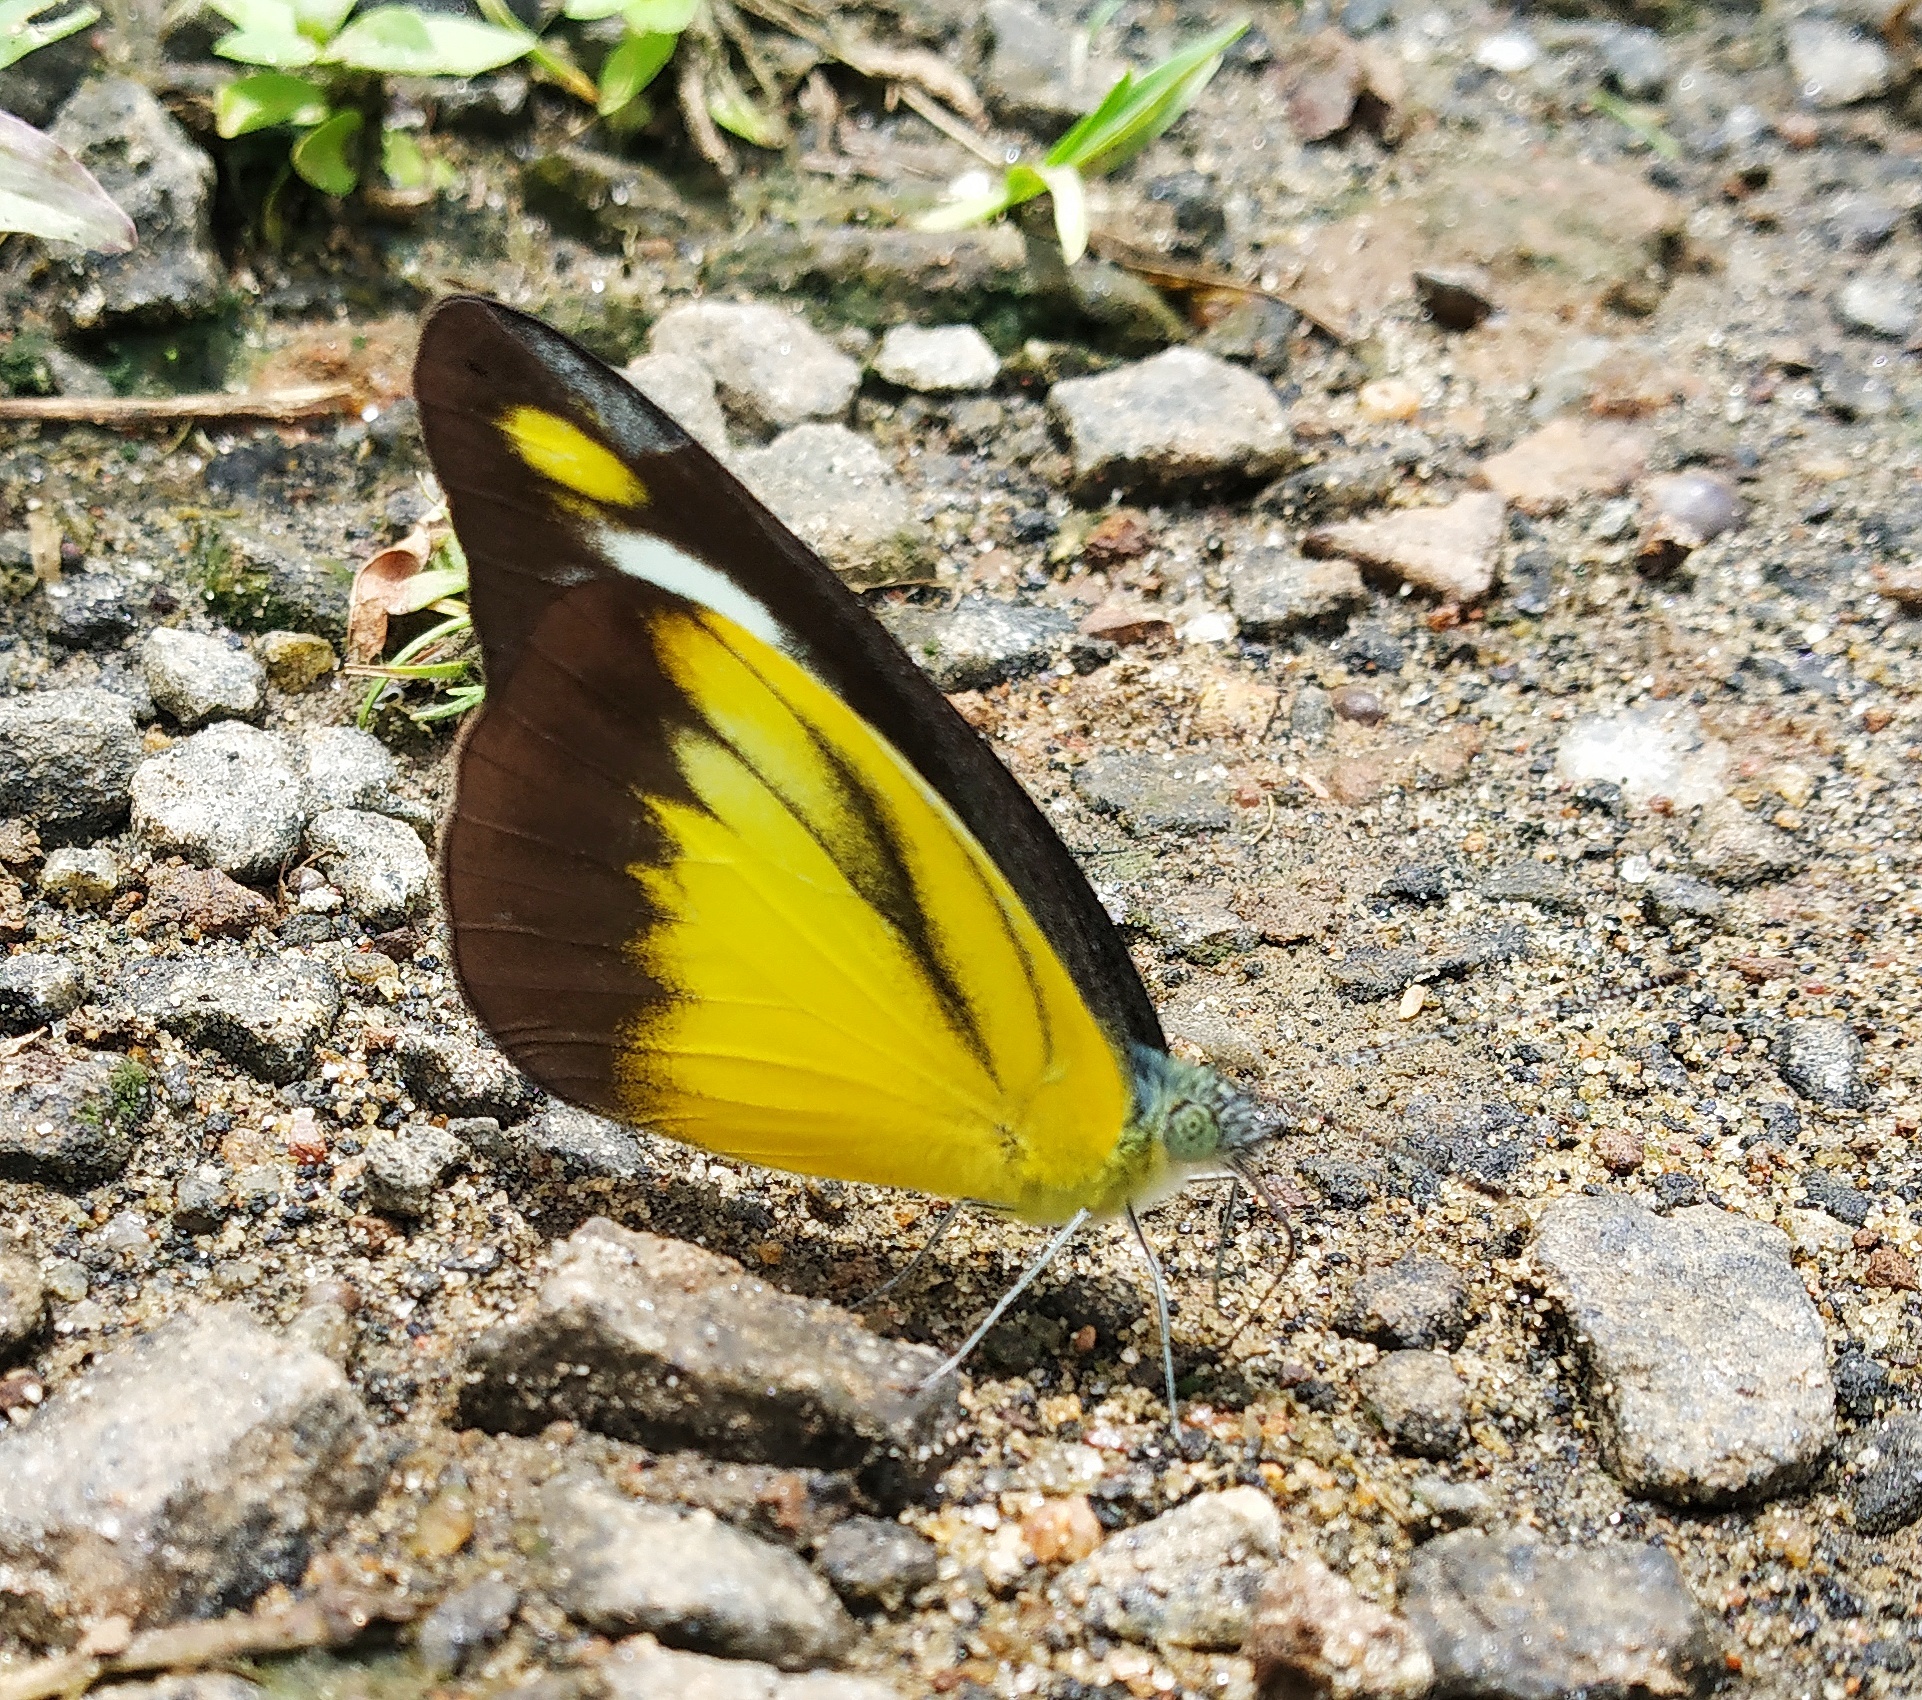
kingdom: Animalia
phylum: Arthropoda
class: Insecta
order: Lepidoptera
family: Pieridae
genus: Appias
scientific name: Appias lyncida
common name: Chocolate albatross
